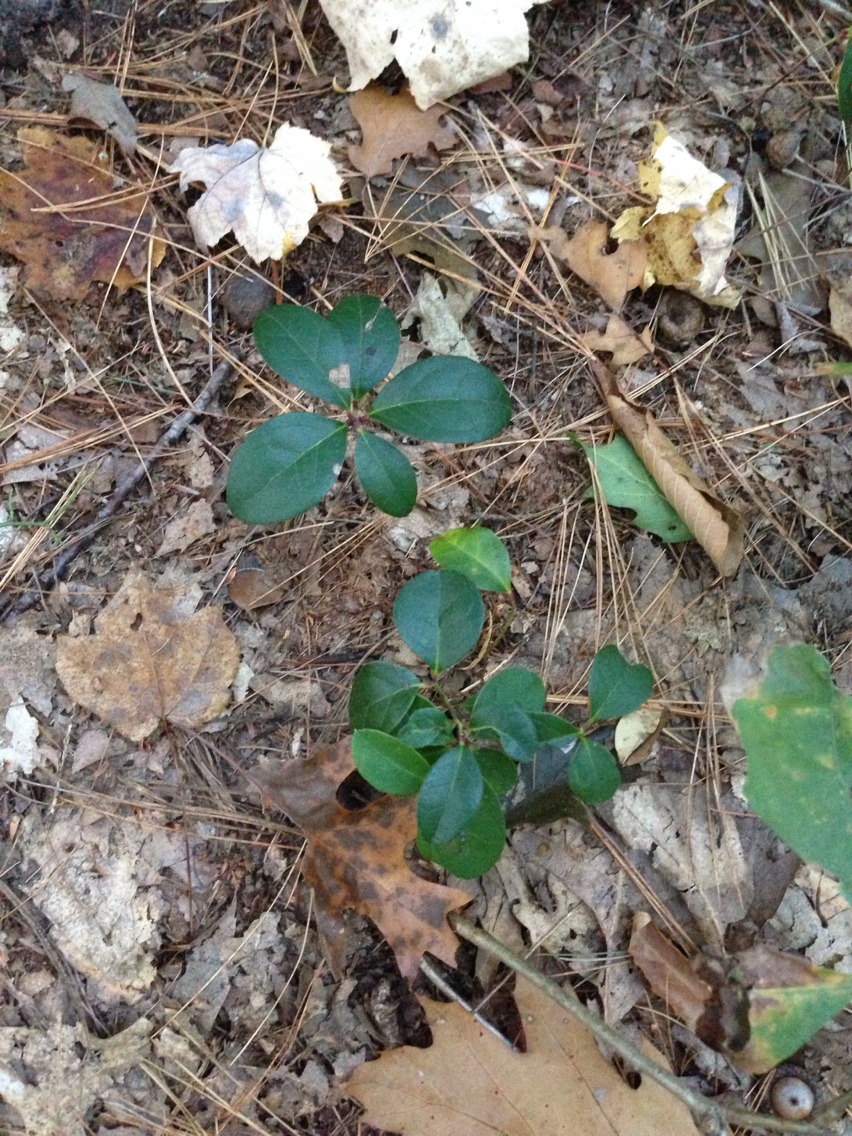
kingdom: Plantae
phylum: Tracheophyta
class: Magnoliopsida
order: Ericales
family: Ericaceae
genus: Gaultheria
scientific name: Gaultheria procumbens
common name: Checkerberry
